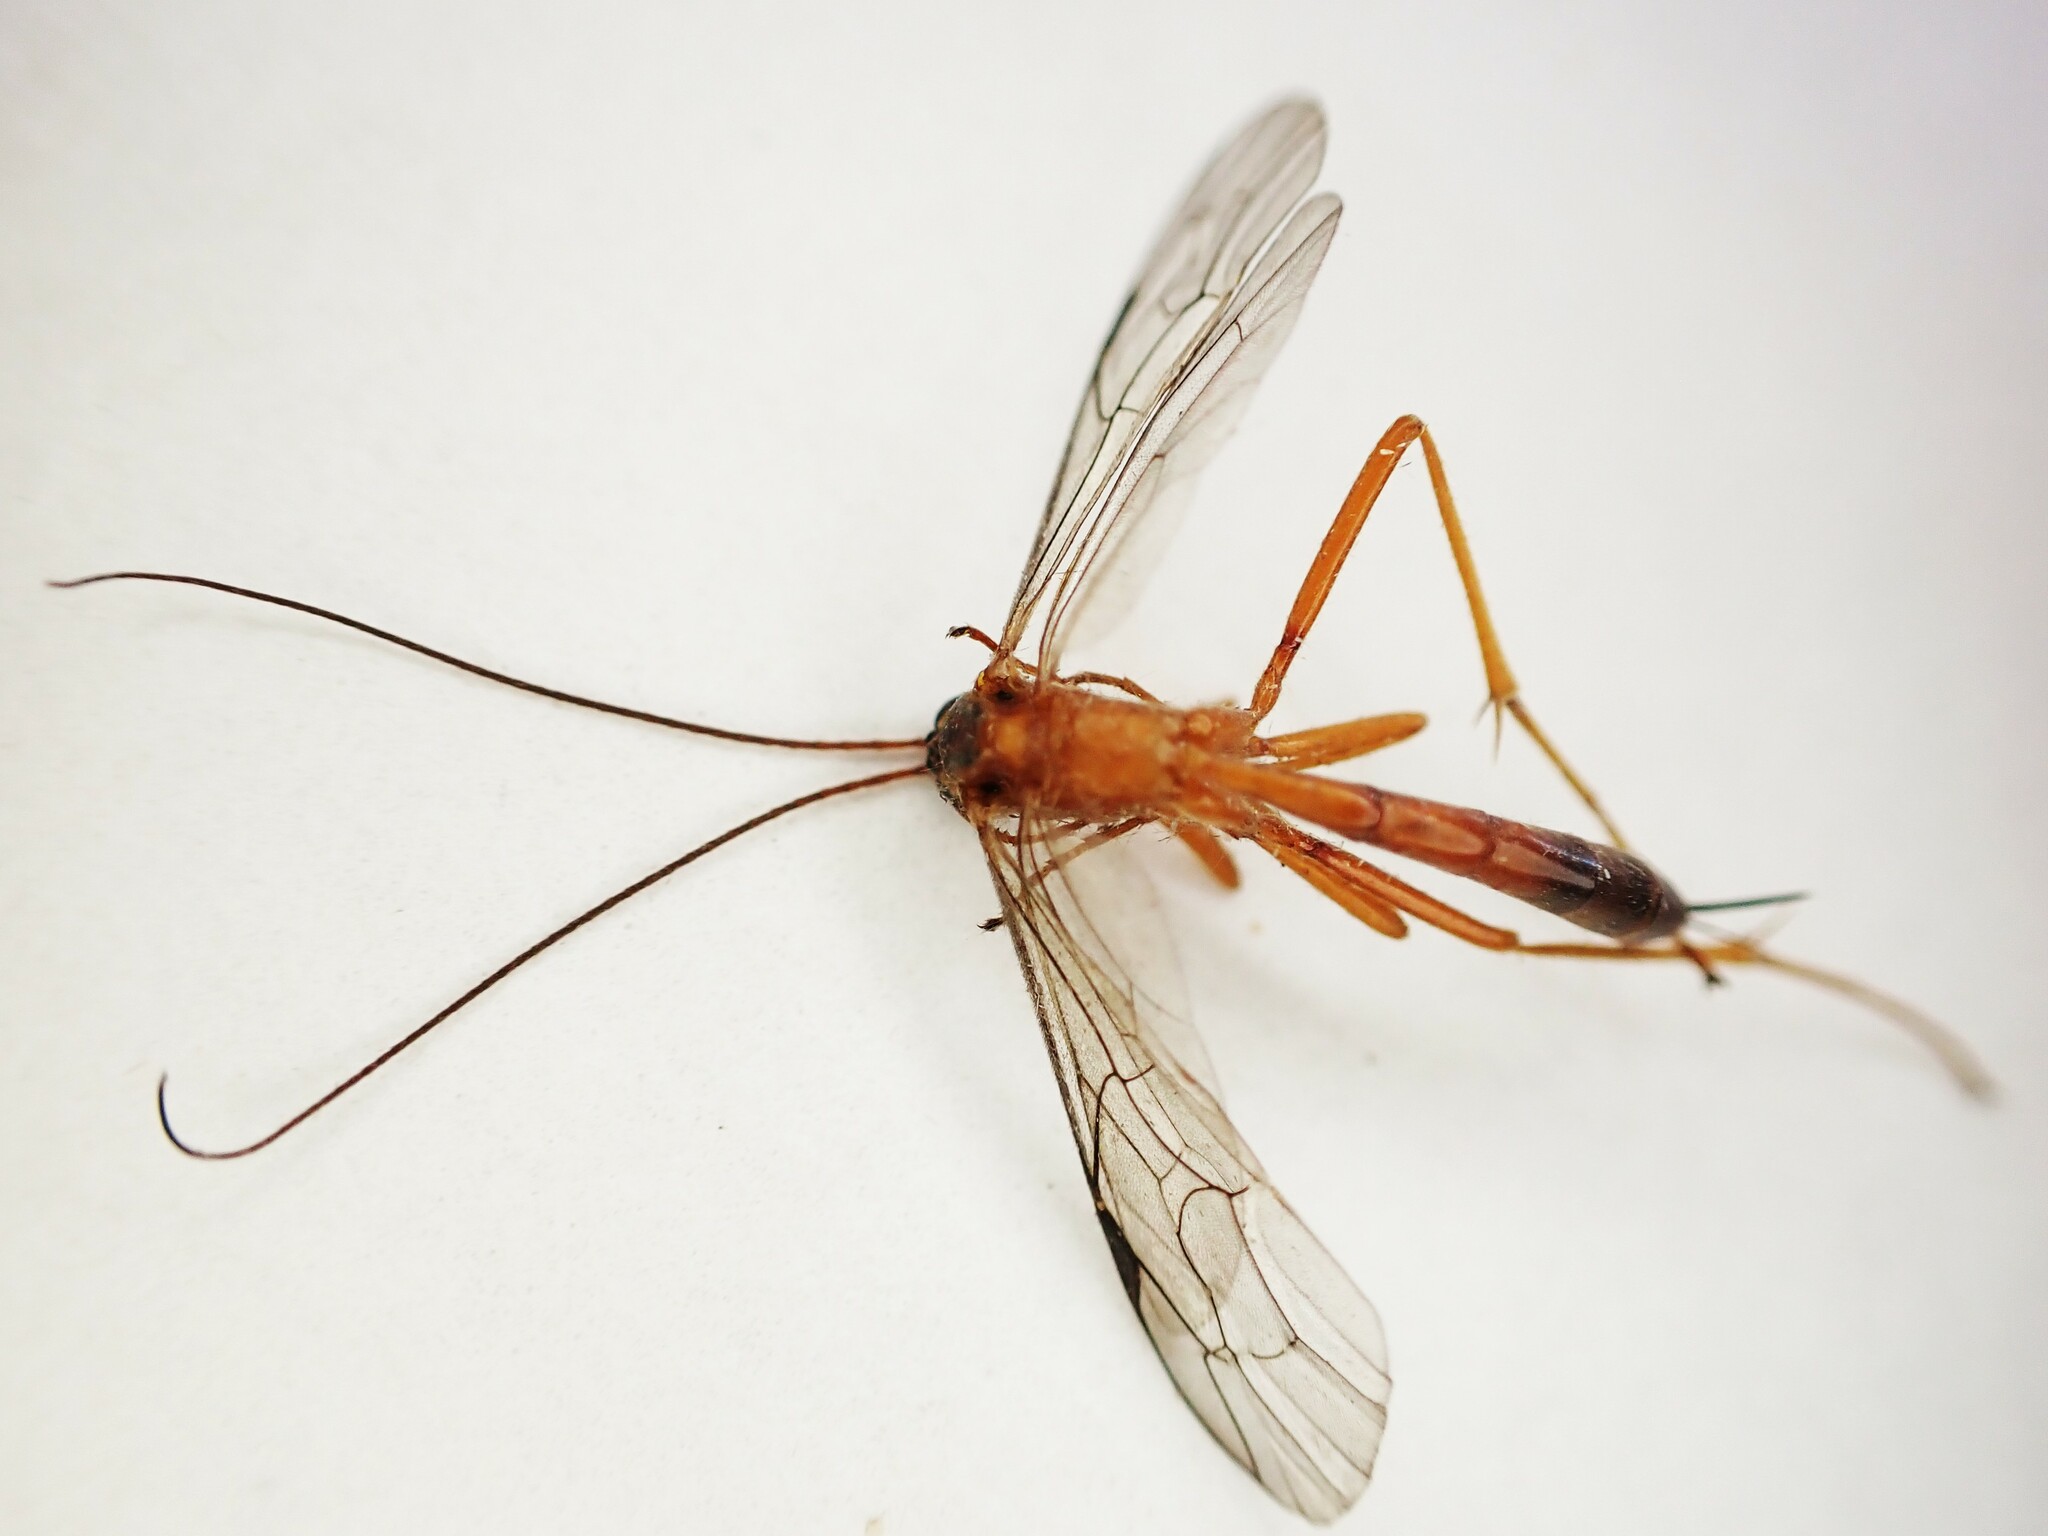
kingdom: Animalia
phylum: Arthropoda
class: Insecta
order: Hymenoptera
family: Ichneumonidae
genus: Netelia
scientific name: Netelia ephippiata
